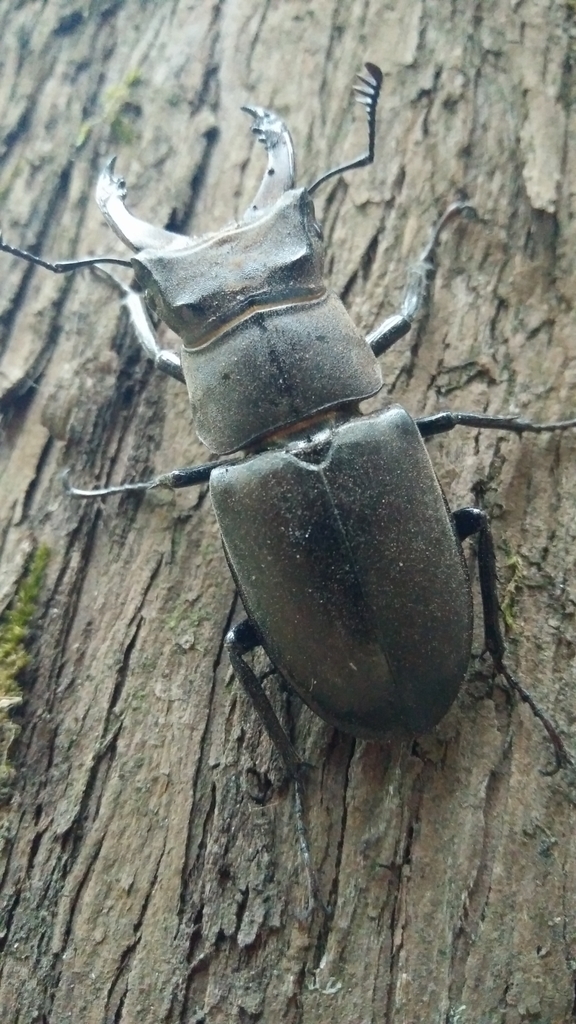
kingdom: Animalia
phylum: Arthropoda
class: Insecta
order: Coleoptera
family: Lucanidae
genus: Lucanus
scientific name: Lucanus cervus
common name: Stag beetle
